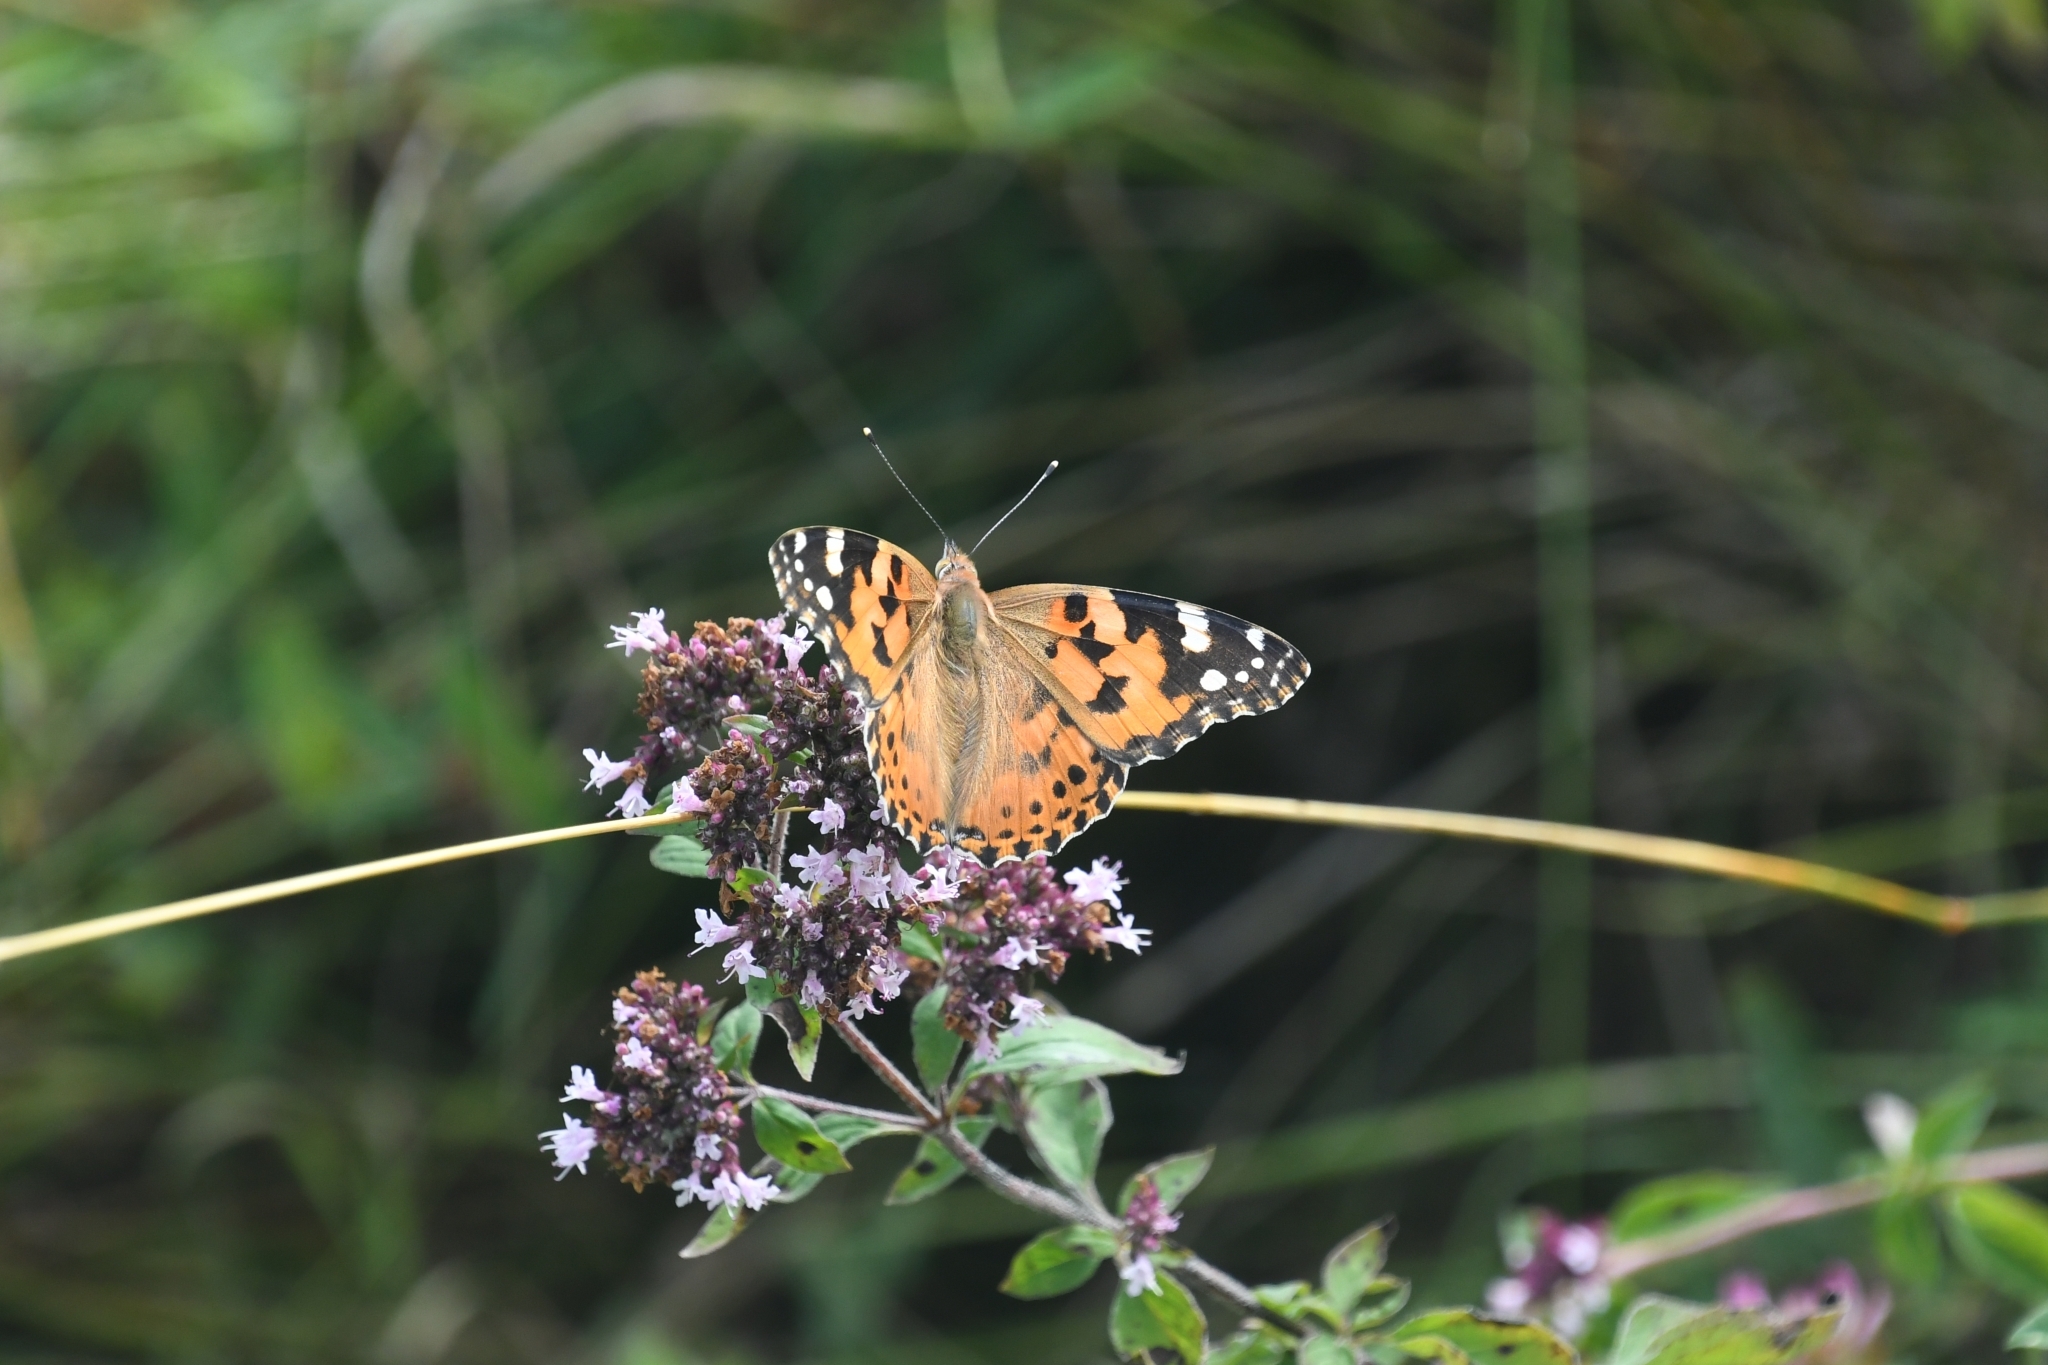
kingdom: Animalia
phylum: Arthropoda
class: Insecta
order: Lepidoptera
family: Nymphalidae
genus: Vanessa
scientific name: Vanessa cardui
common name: Painted lady
